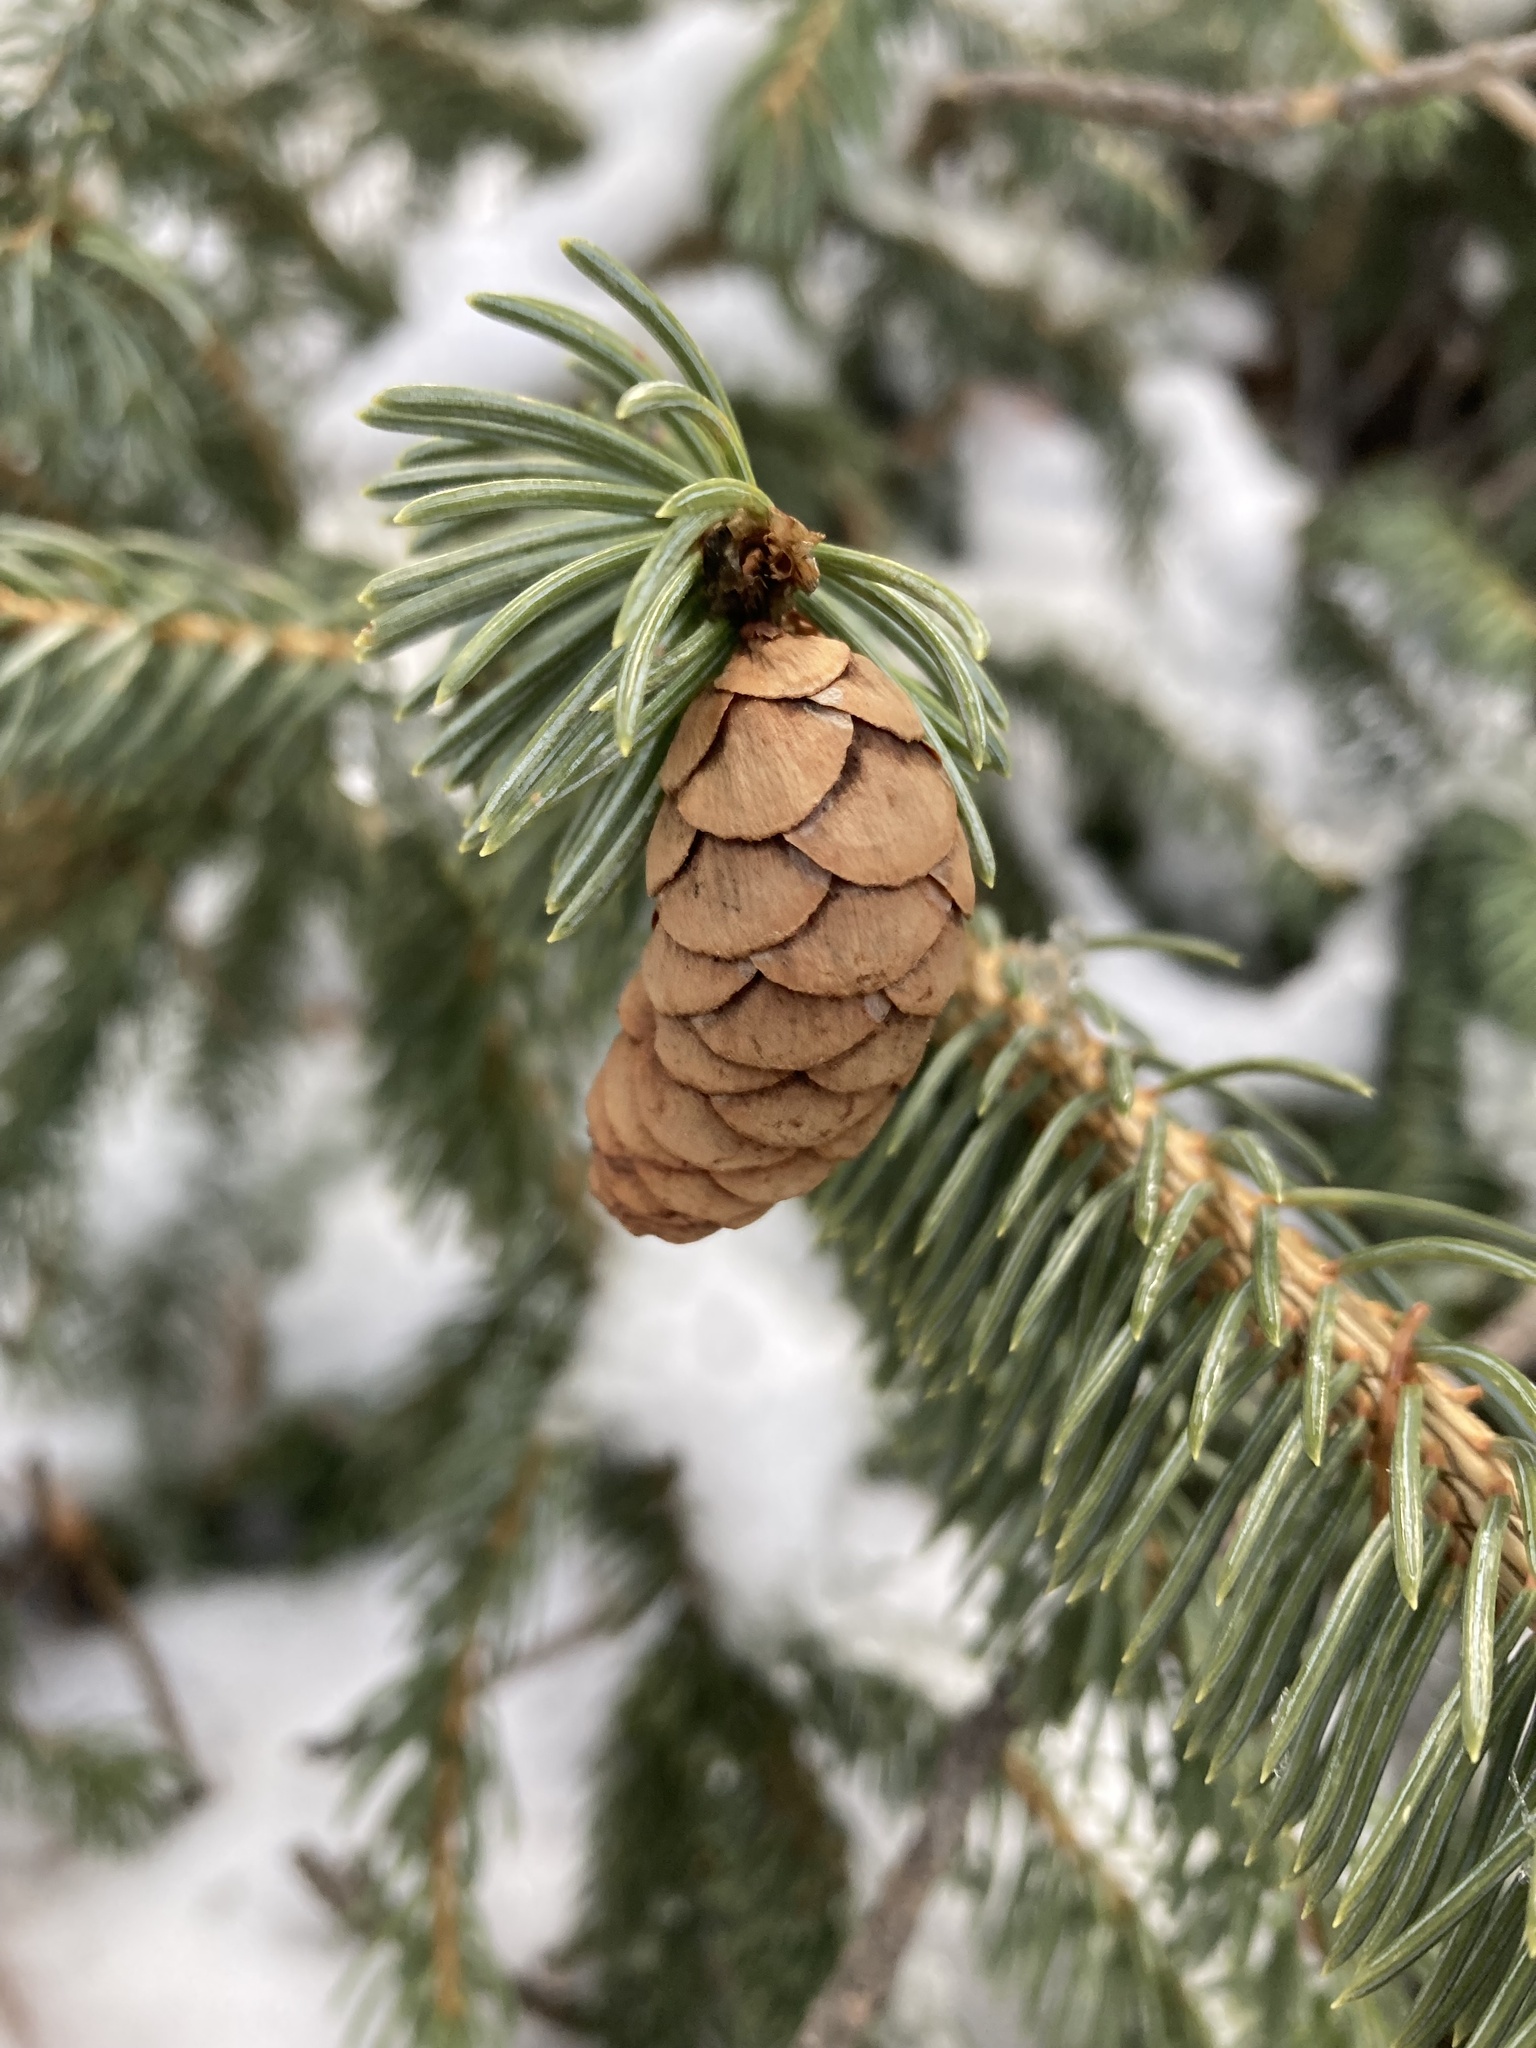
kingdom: Plantae
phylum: Tracheophyta
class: Pinopsida
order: Pinales
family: Pinaceae
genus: Picea
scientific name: Picea glauca
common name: White spruce
